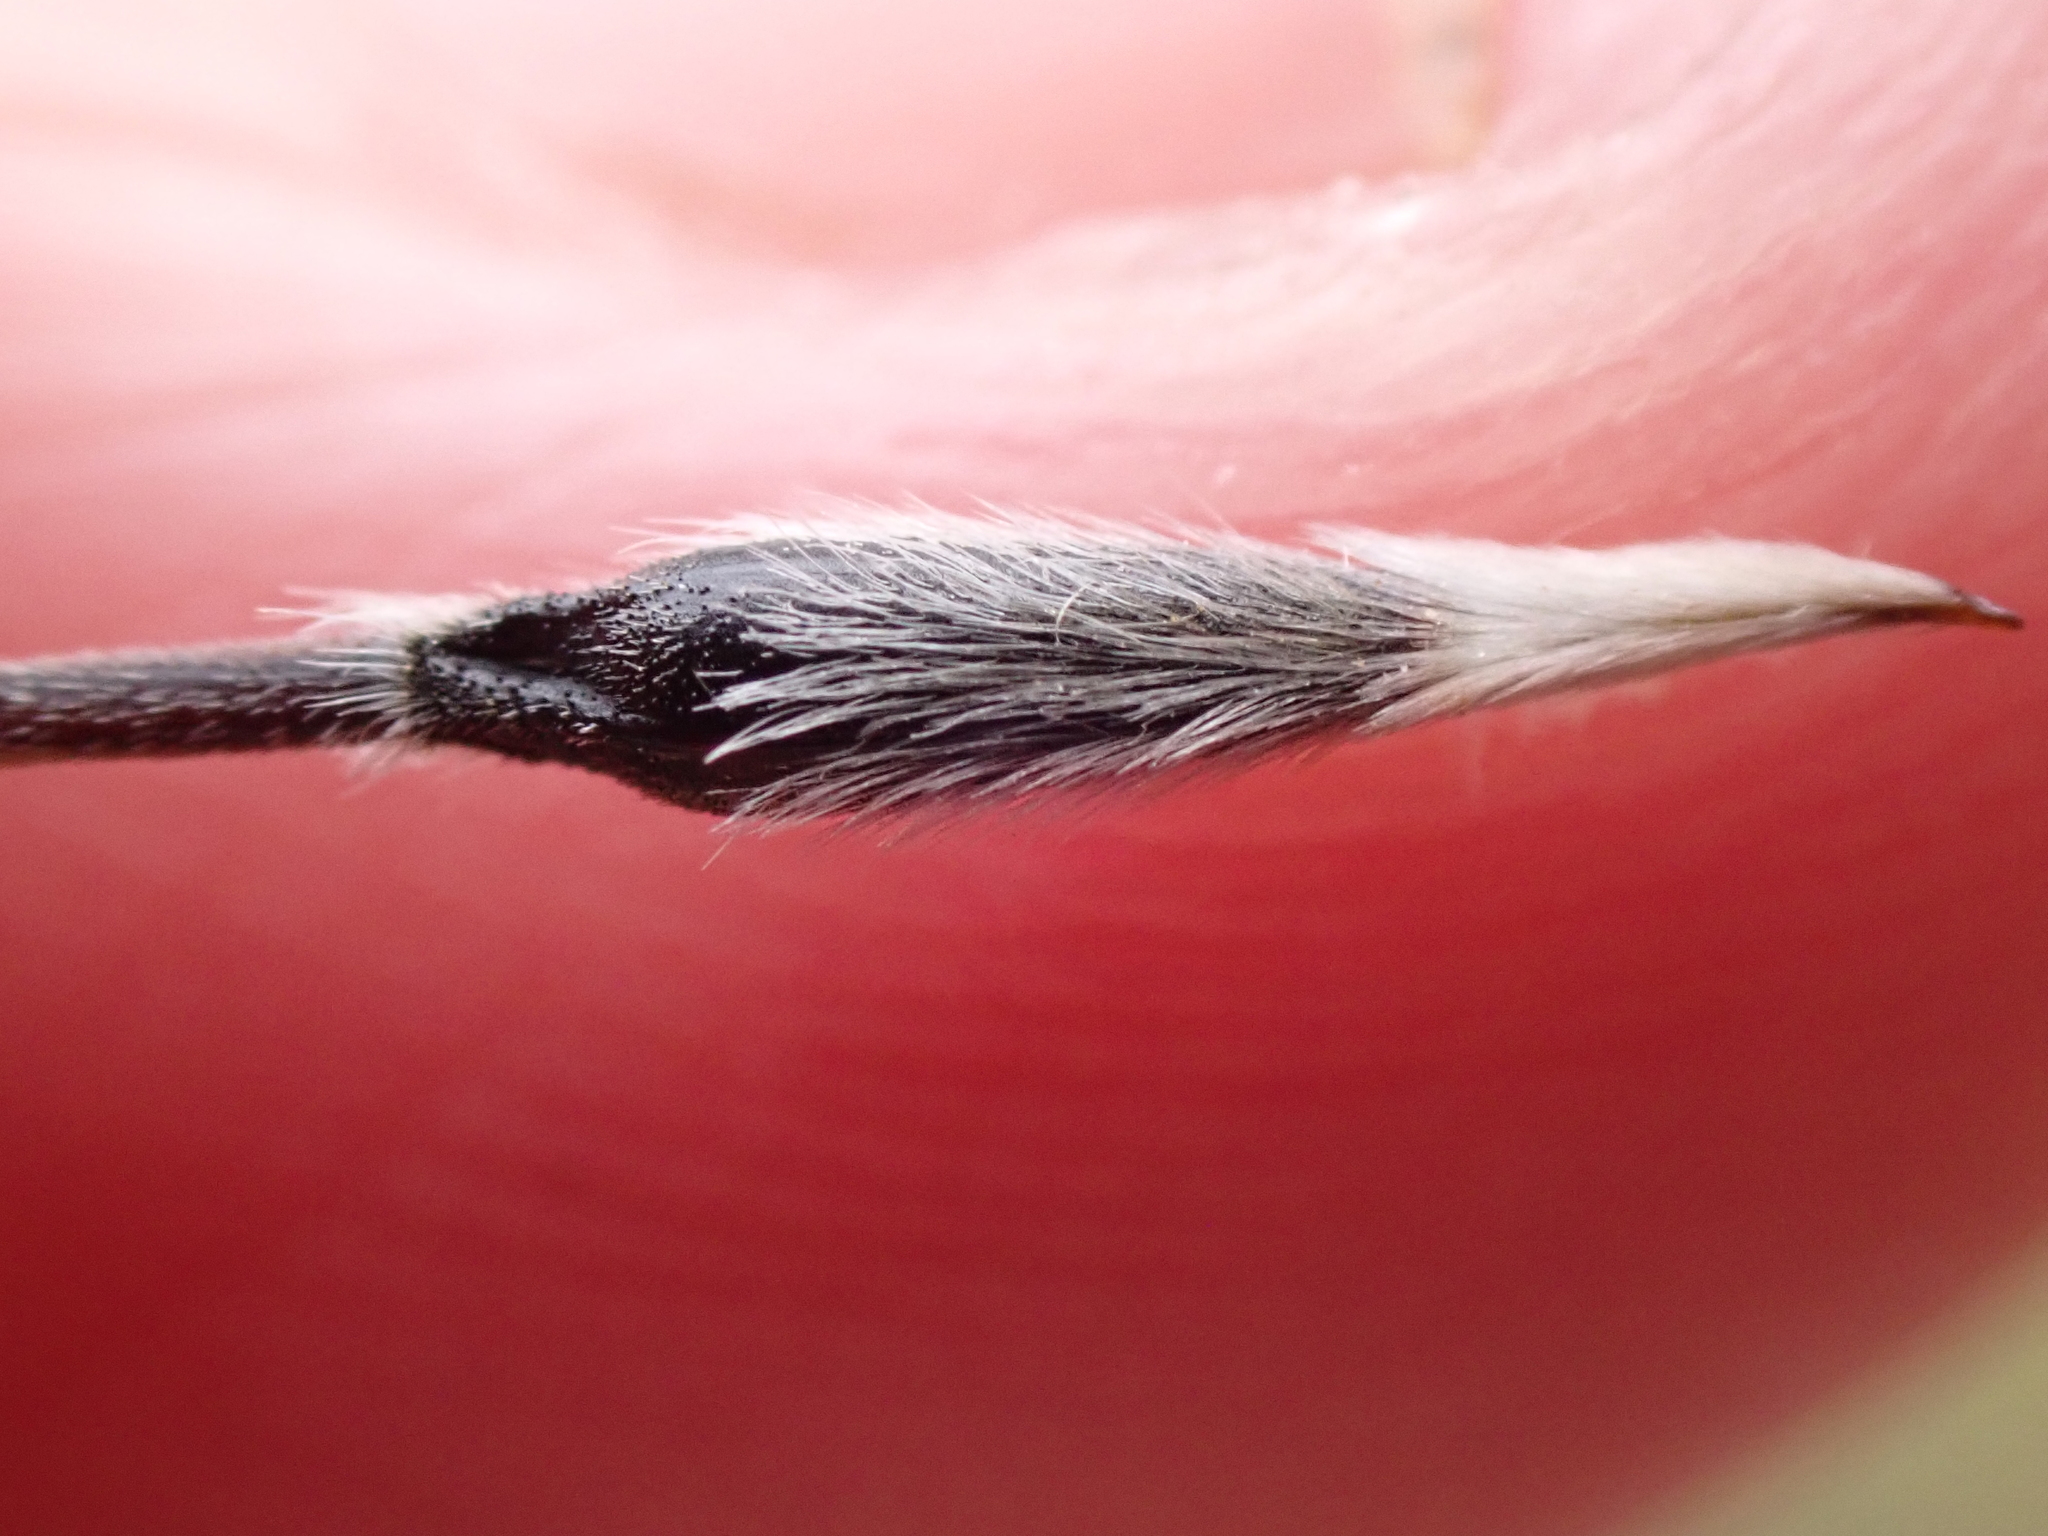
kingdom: Plantae
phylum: Tracheophyta
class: Liliopsida
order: Poales
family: Poaceae
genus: Austrostipa
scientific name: Austrostipa setacea
